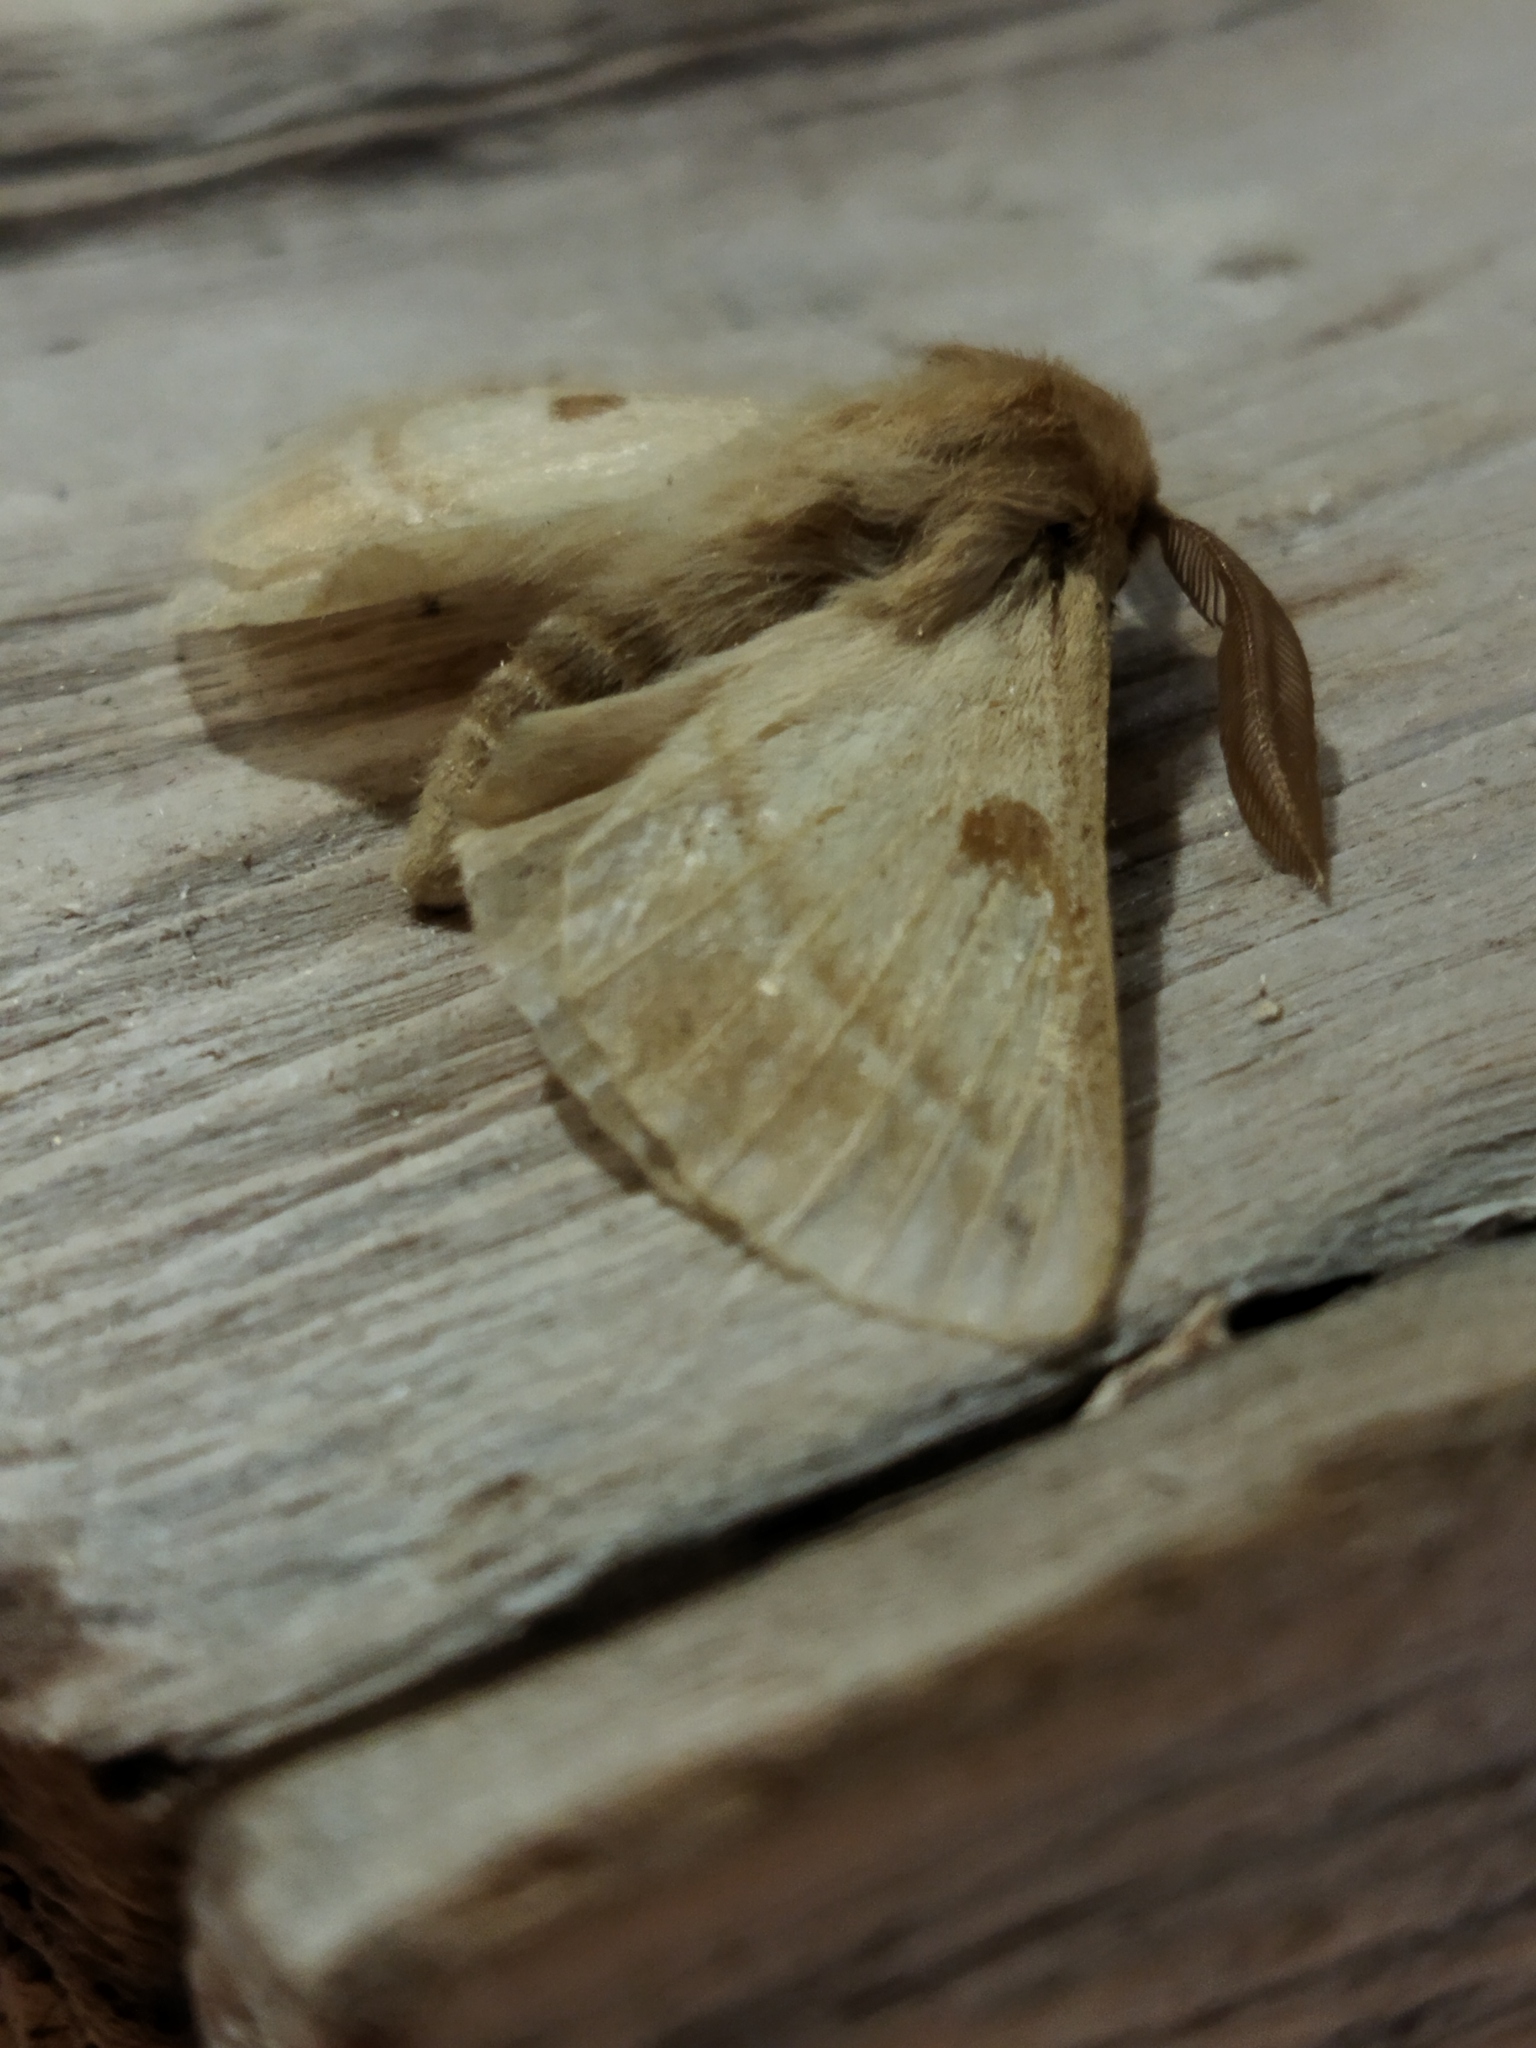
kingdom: Animalia
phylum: Arthropoda
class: Insecta
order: Lepidoptera
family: Brahmaeidae
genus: Lemonia
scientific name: Lemonia balcanica
